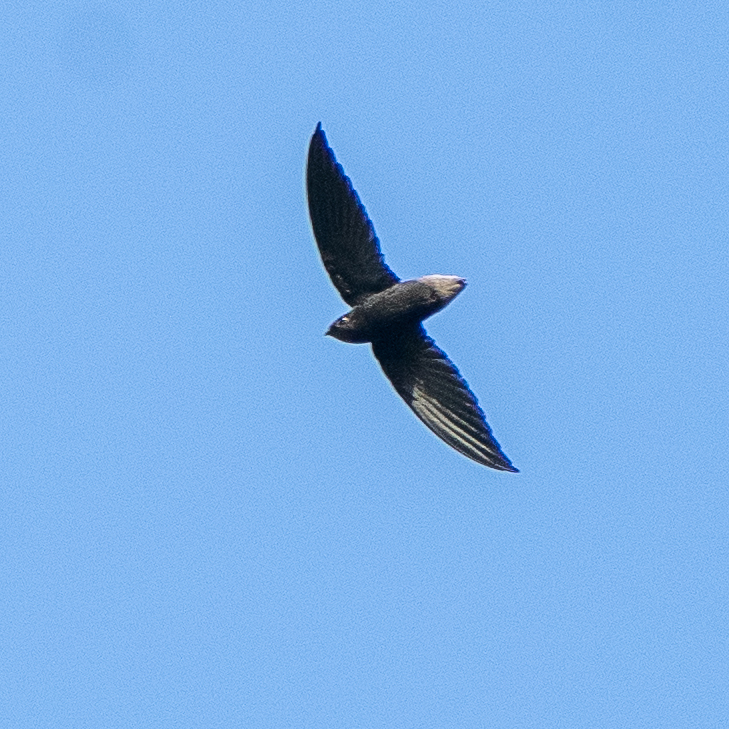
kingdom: Animalia
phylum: Chordata
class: Aves
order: Apodiformes
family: Apodidae
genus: Chaetura
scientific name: Chaetura brachyura
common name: Short-tailed swift
